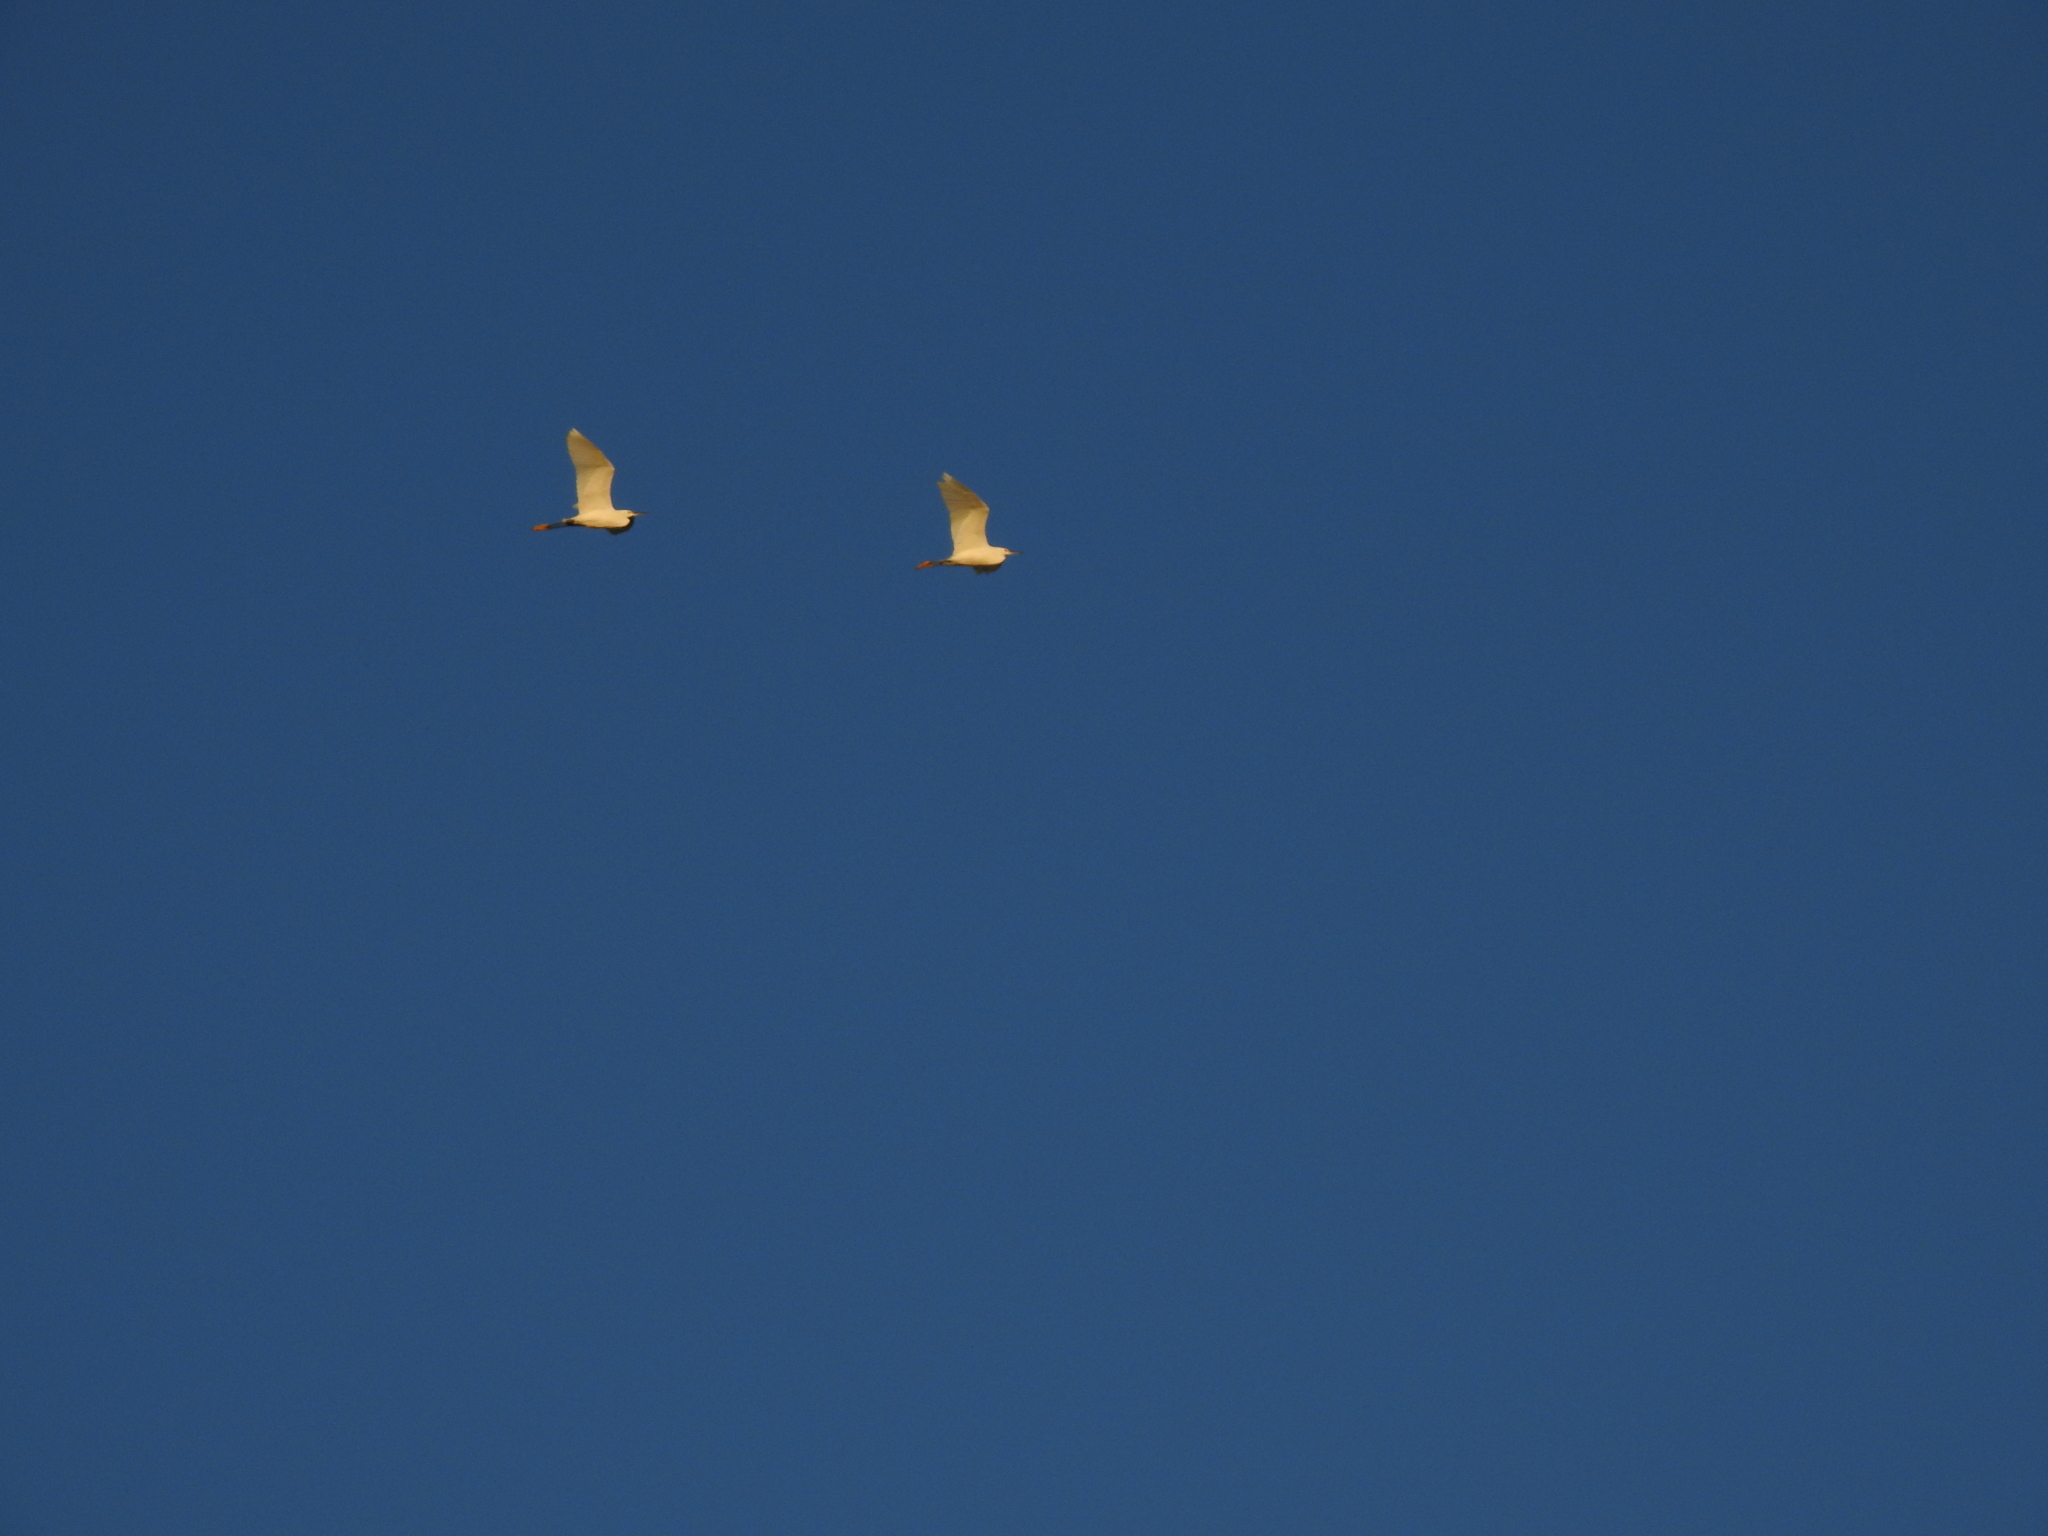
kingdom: Animalia
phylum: Chordata
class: Aves
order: Pelecaniformes
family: Ardeidae
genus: Egretta
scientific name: Egretta thula
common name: Snowy egret
